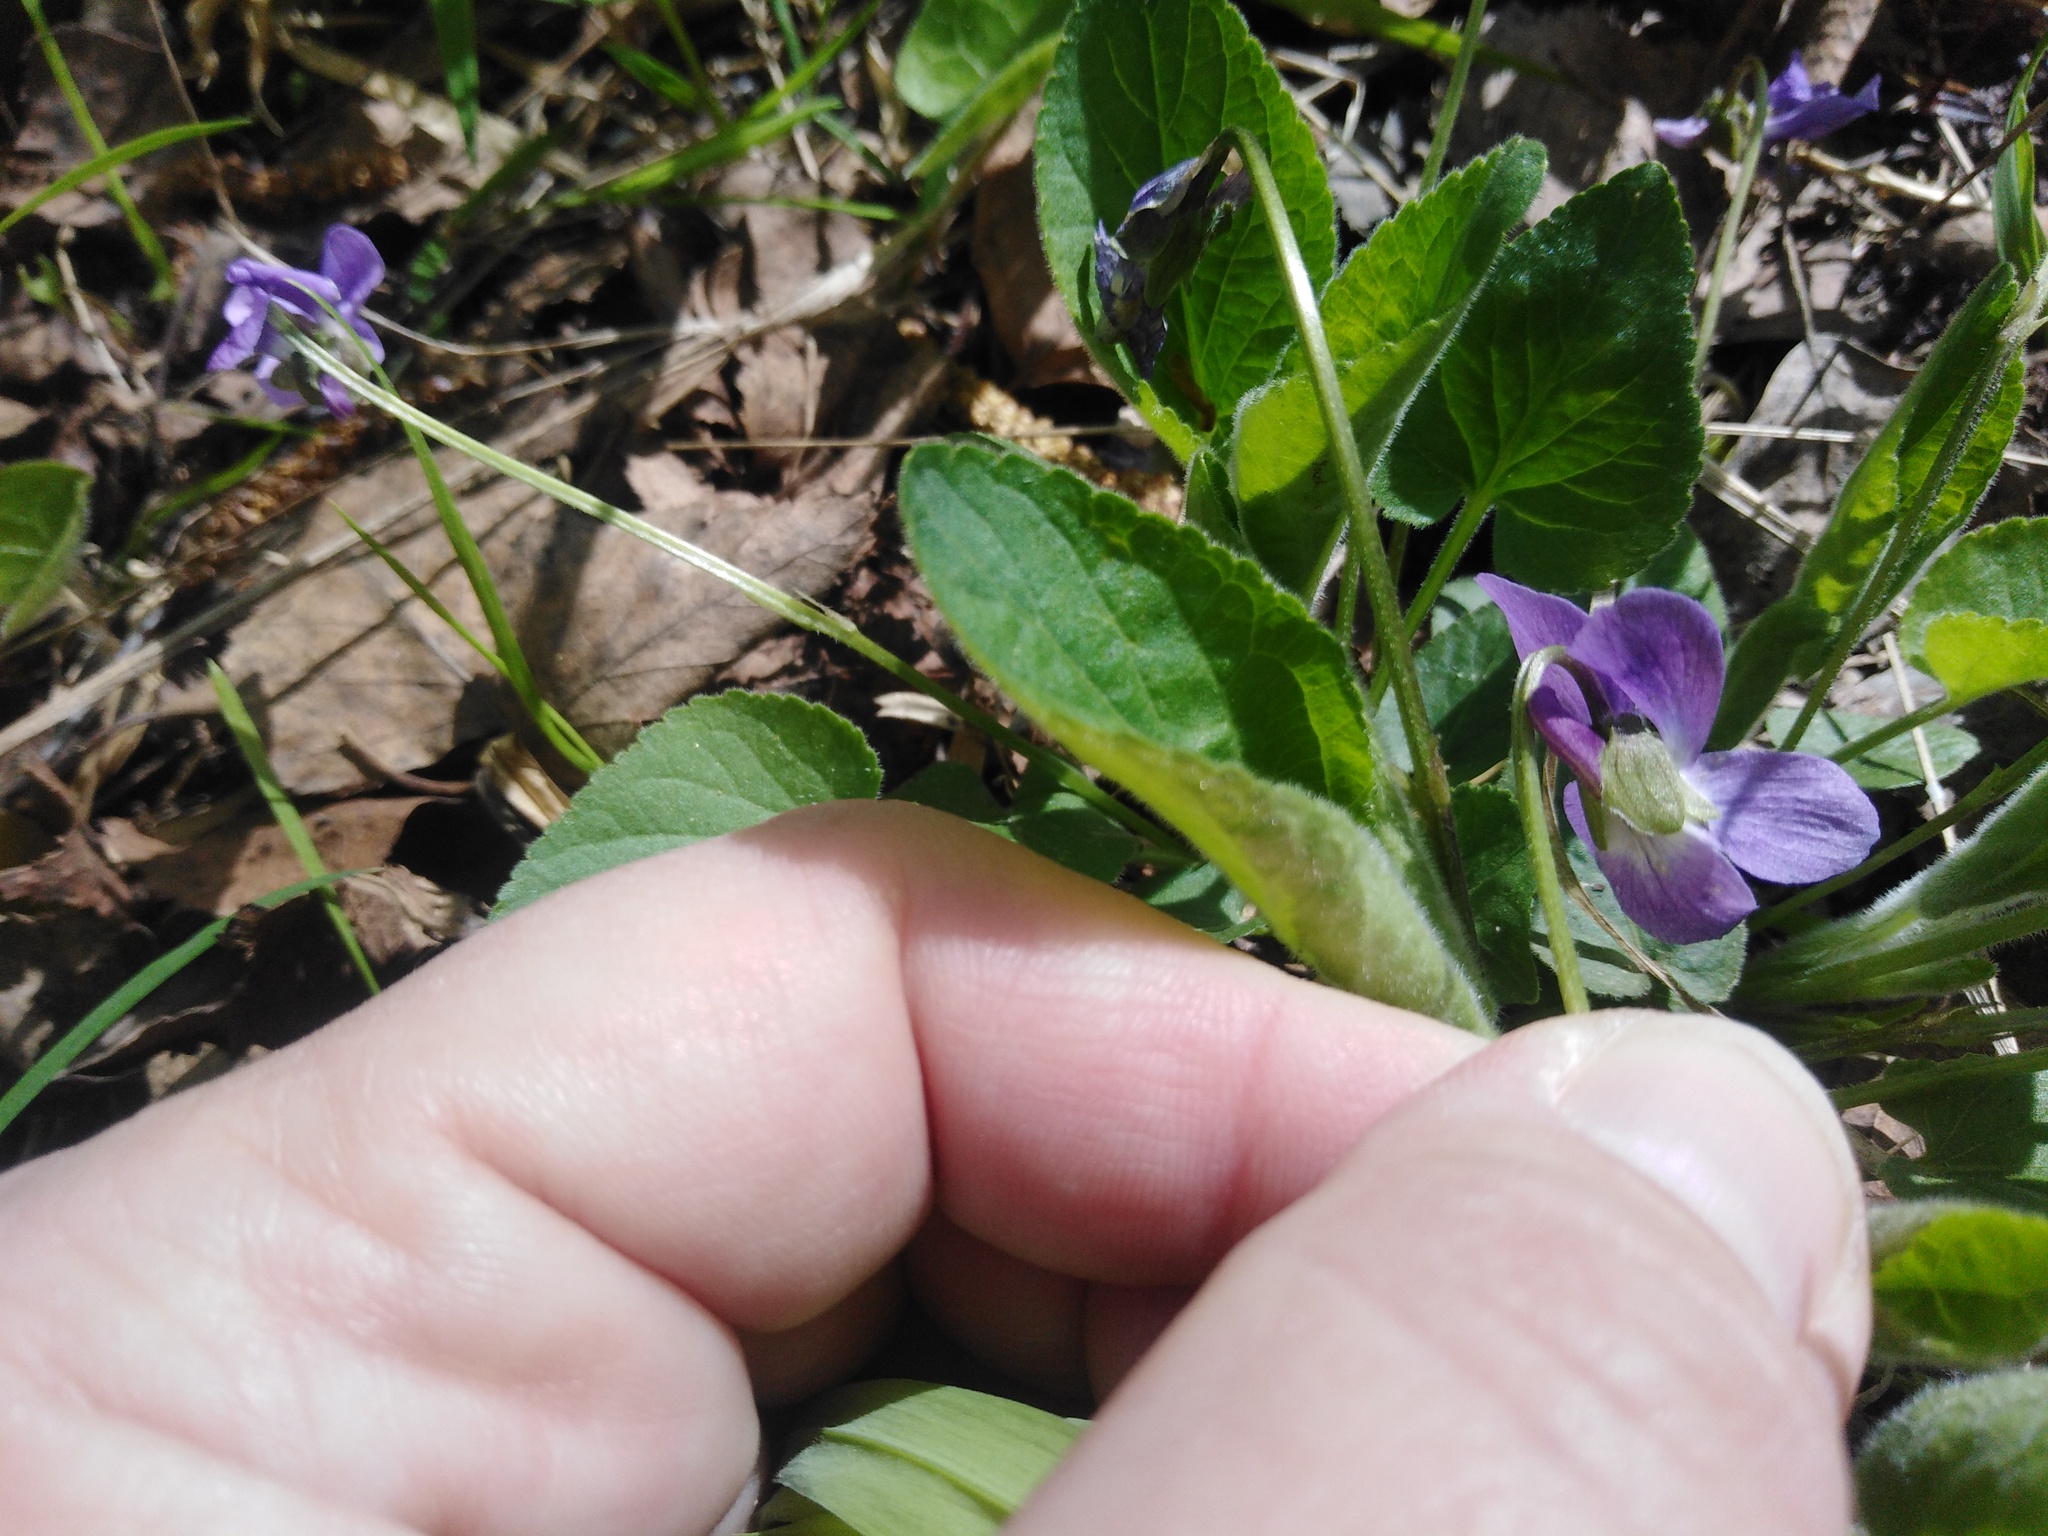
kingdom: Plantae
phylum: Tracheophyta
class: Magnoliopsida
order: Malpighiales
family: Violaceae
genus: Viola
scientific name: Viola hirta
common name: Hairy violet
